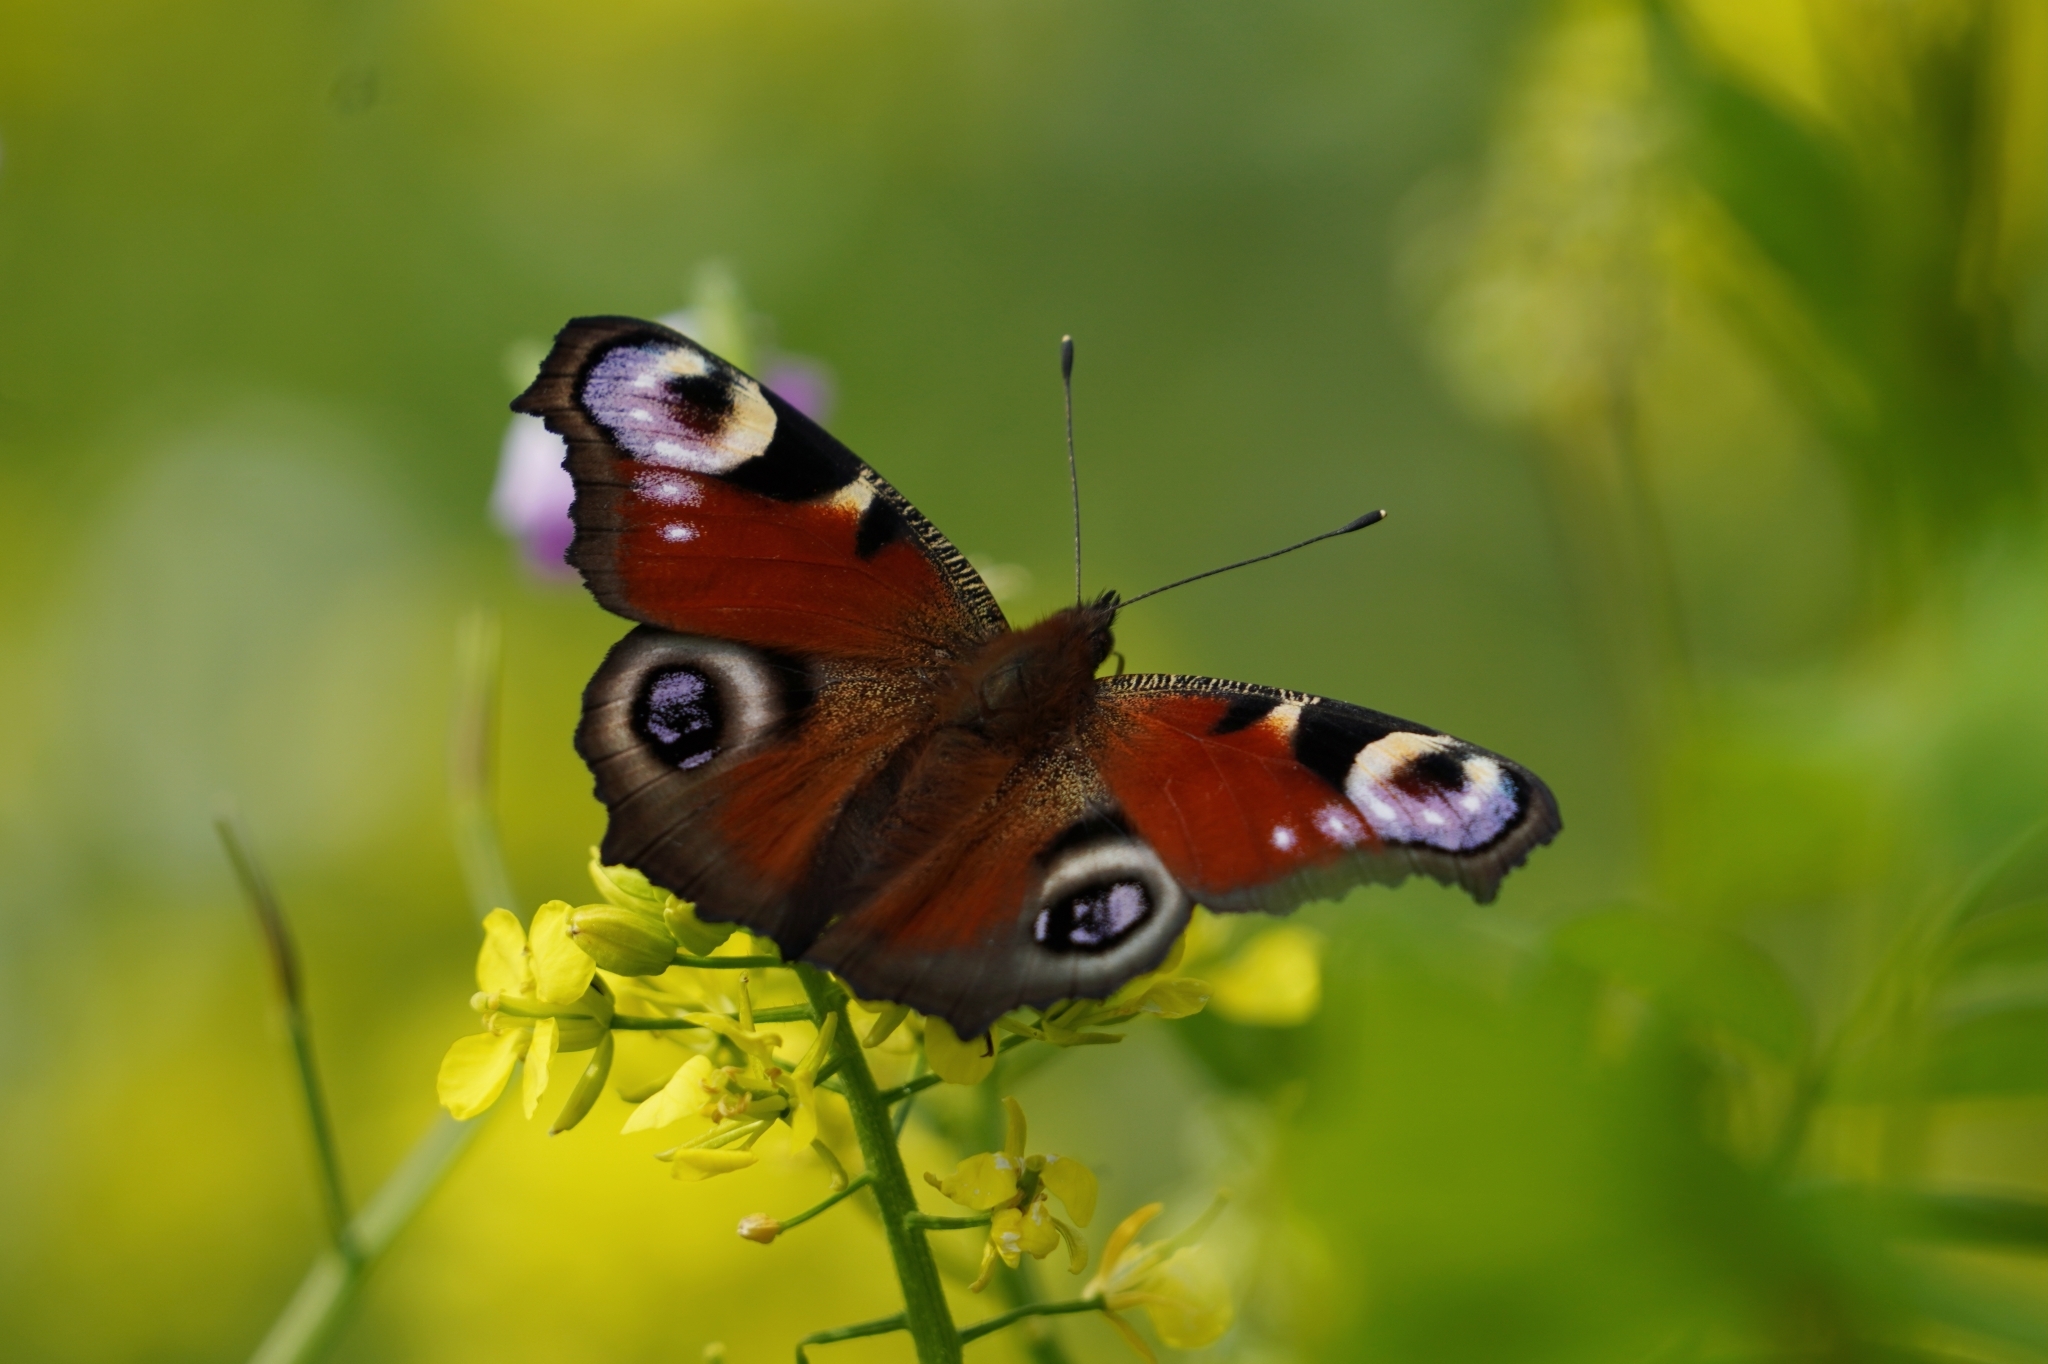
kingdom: Animalia
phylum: Arthropoda
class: Insecta
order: Lepidoptera
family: Nymphalidae
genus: Aglais
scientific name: Aglais io
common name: Peacock
